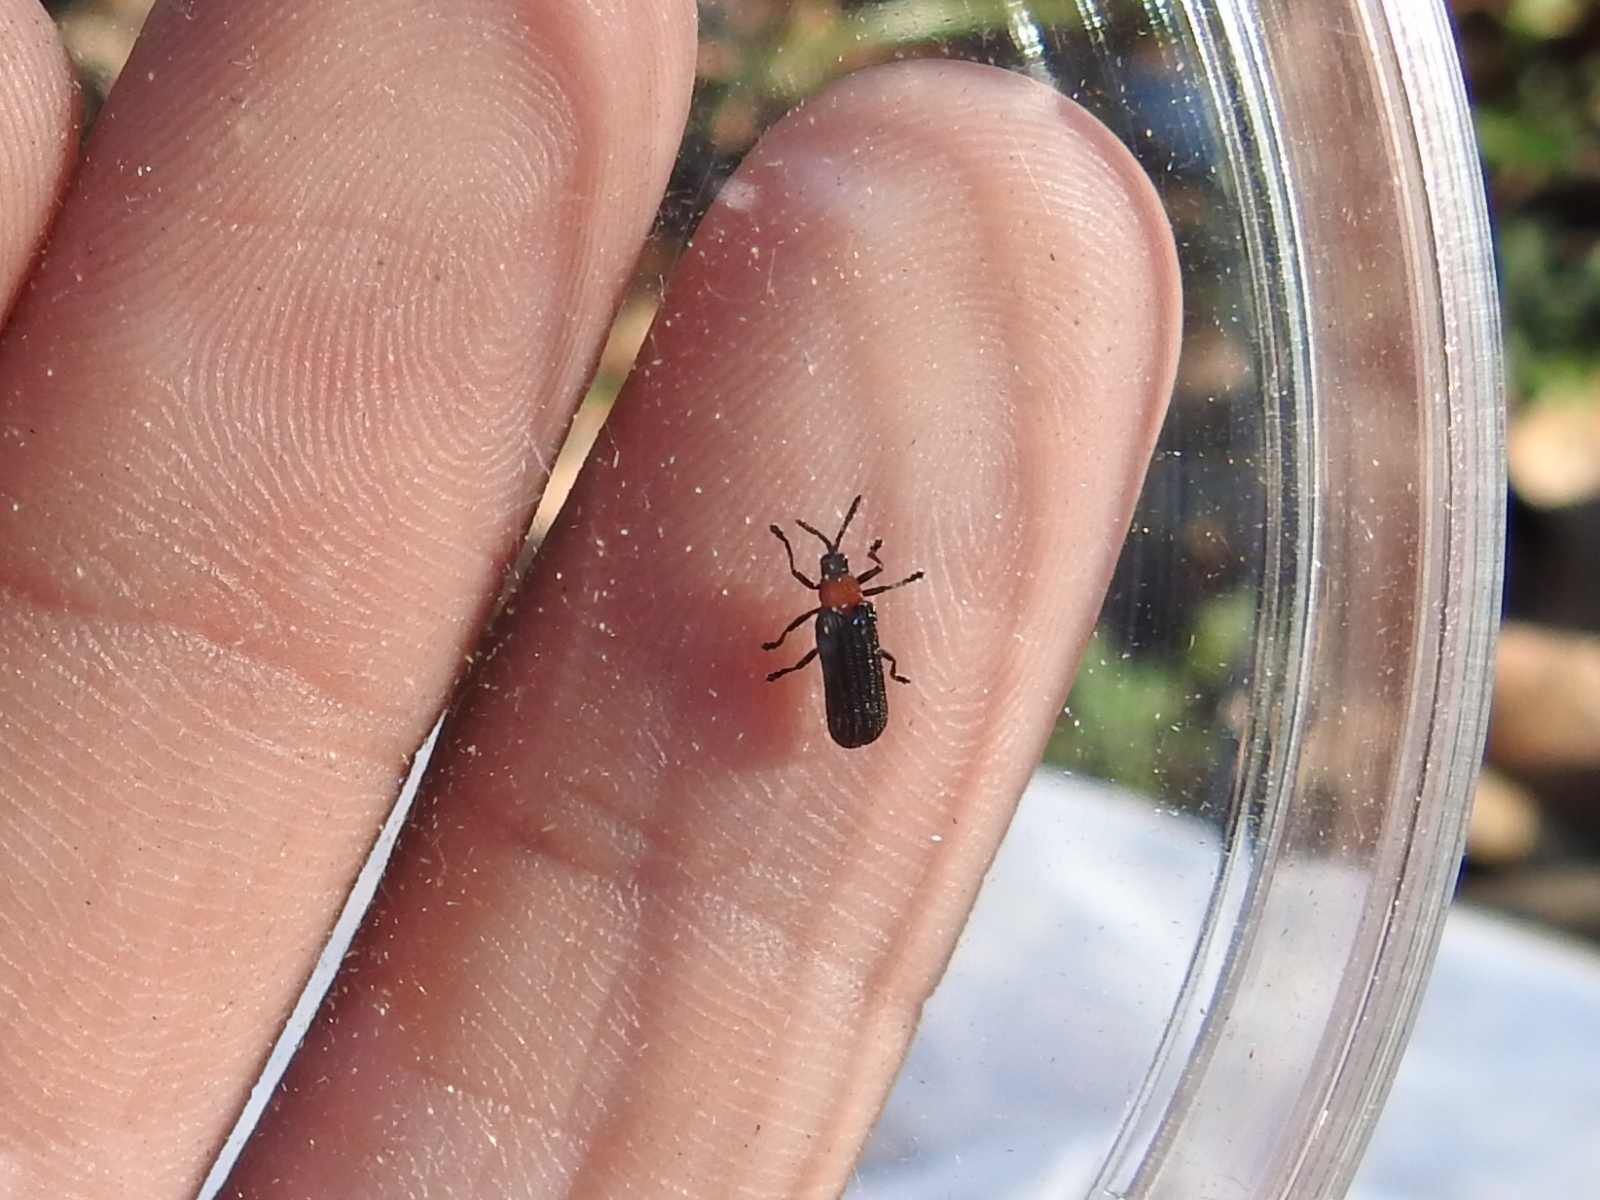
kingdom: Animalia
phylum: Arthropoda
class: Insecta
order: Coleoptera
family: Chrysomelidae
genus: Chalepus
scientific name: Chalepus bicolor
